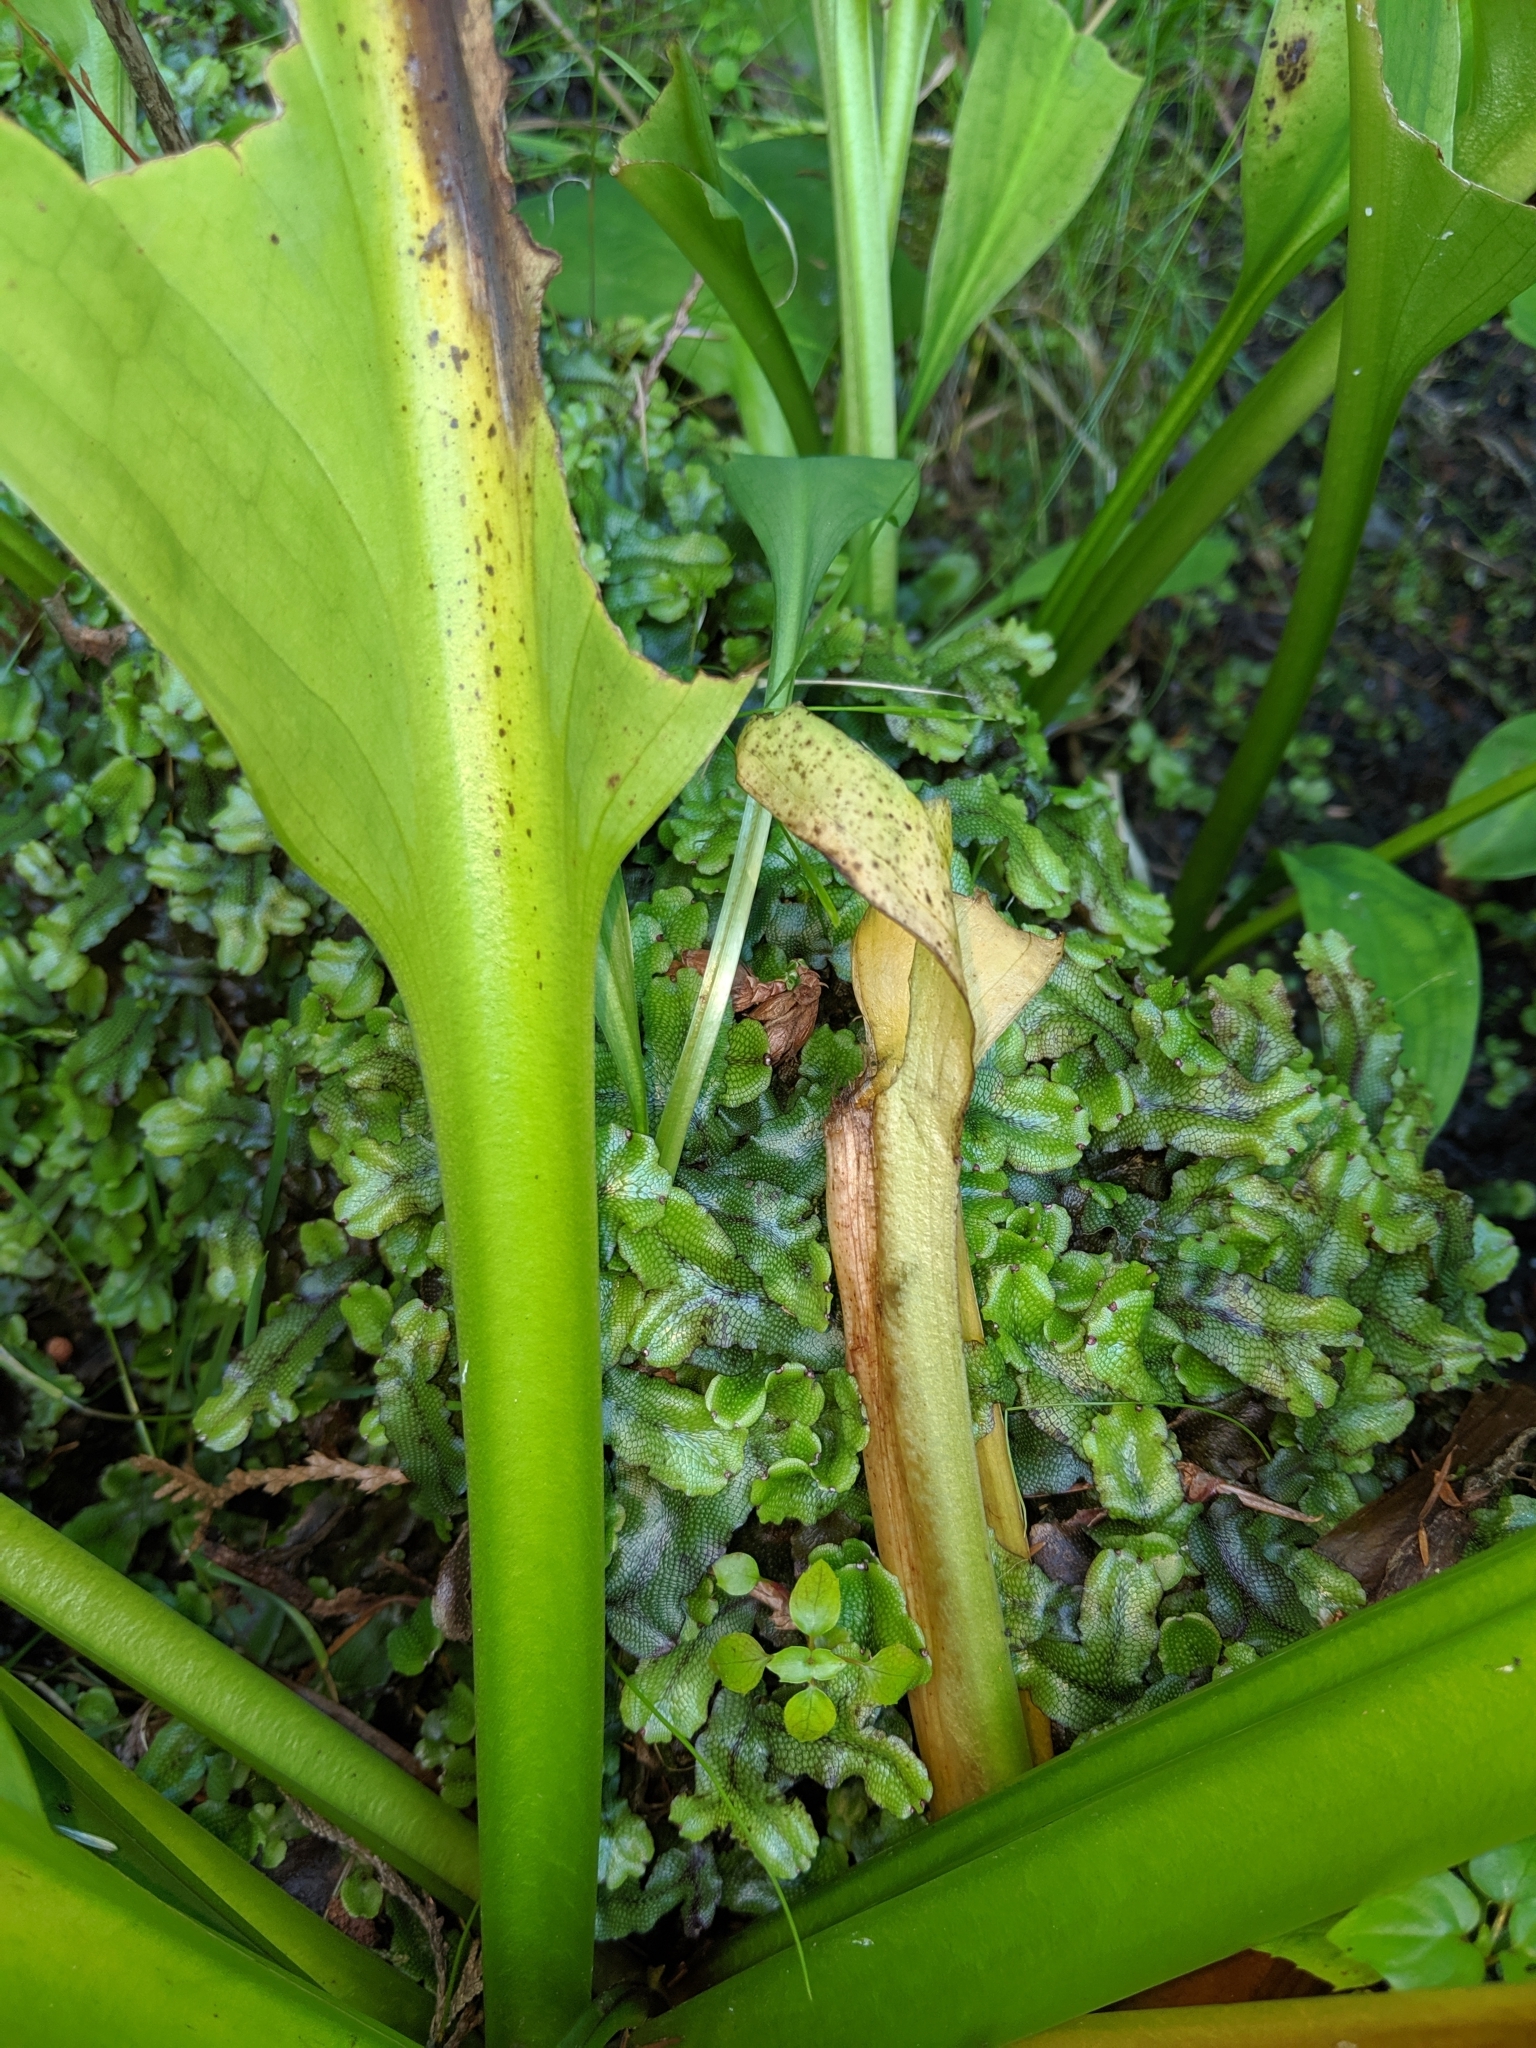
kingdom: Plantae
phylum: Marchantiophyta
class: Marchantiopsida
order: Marchantiales
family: Conocephalaceae
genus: Conocephalum
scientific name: Conocephalum salebrosum
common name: Cat-tongue liverwort
